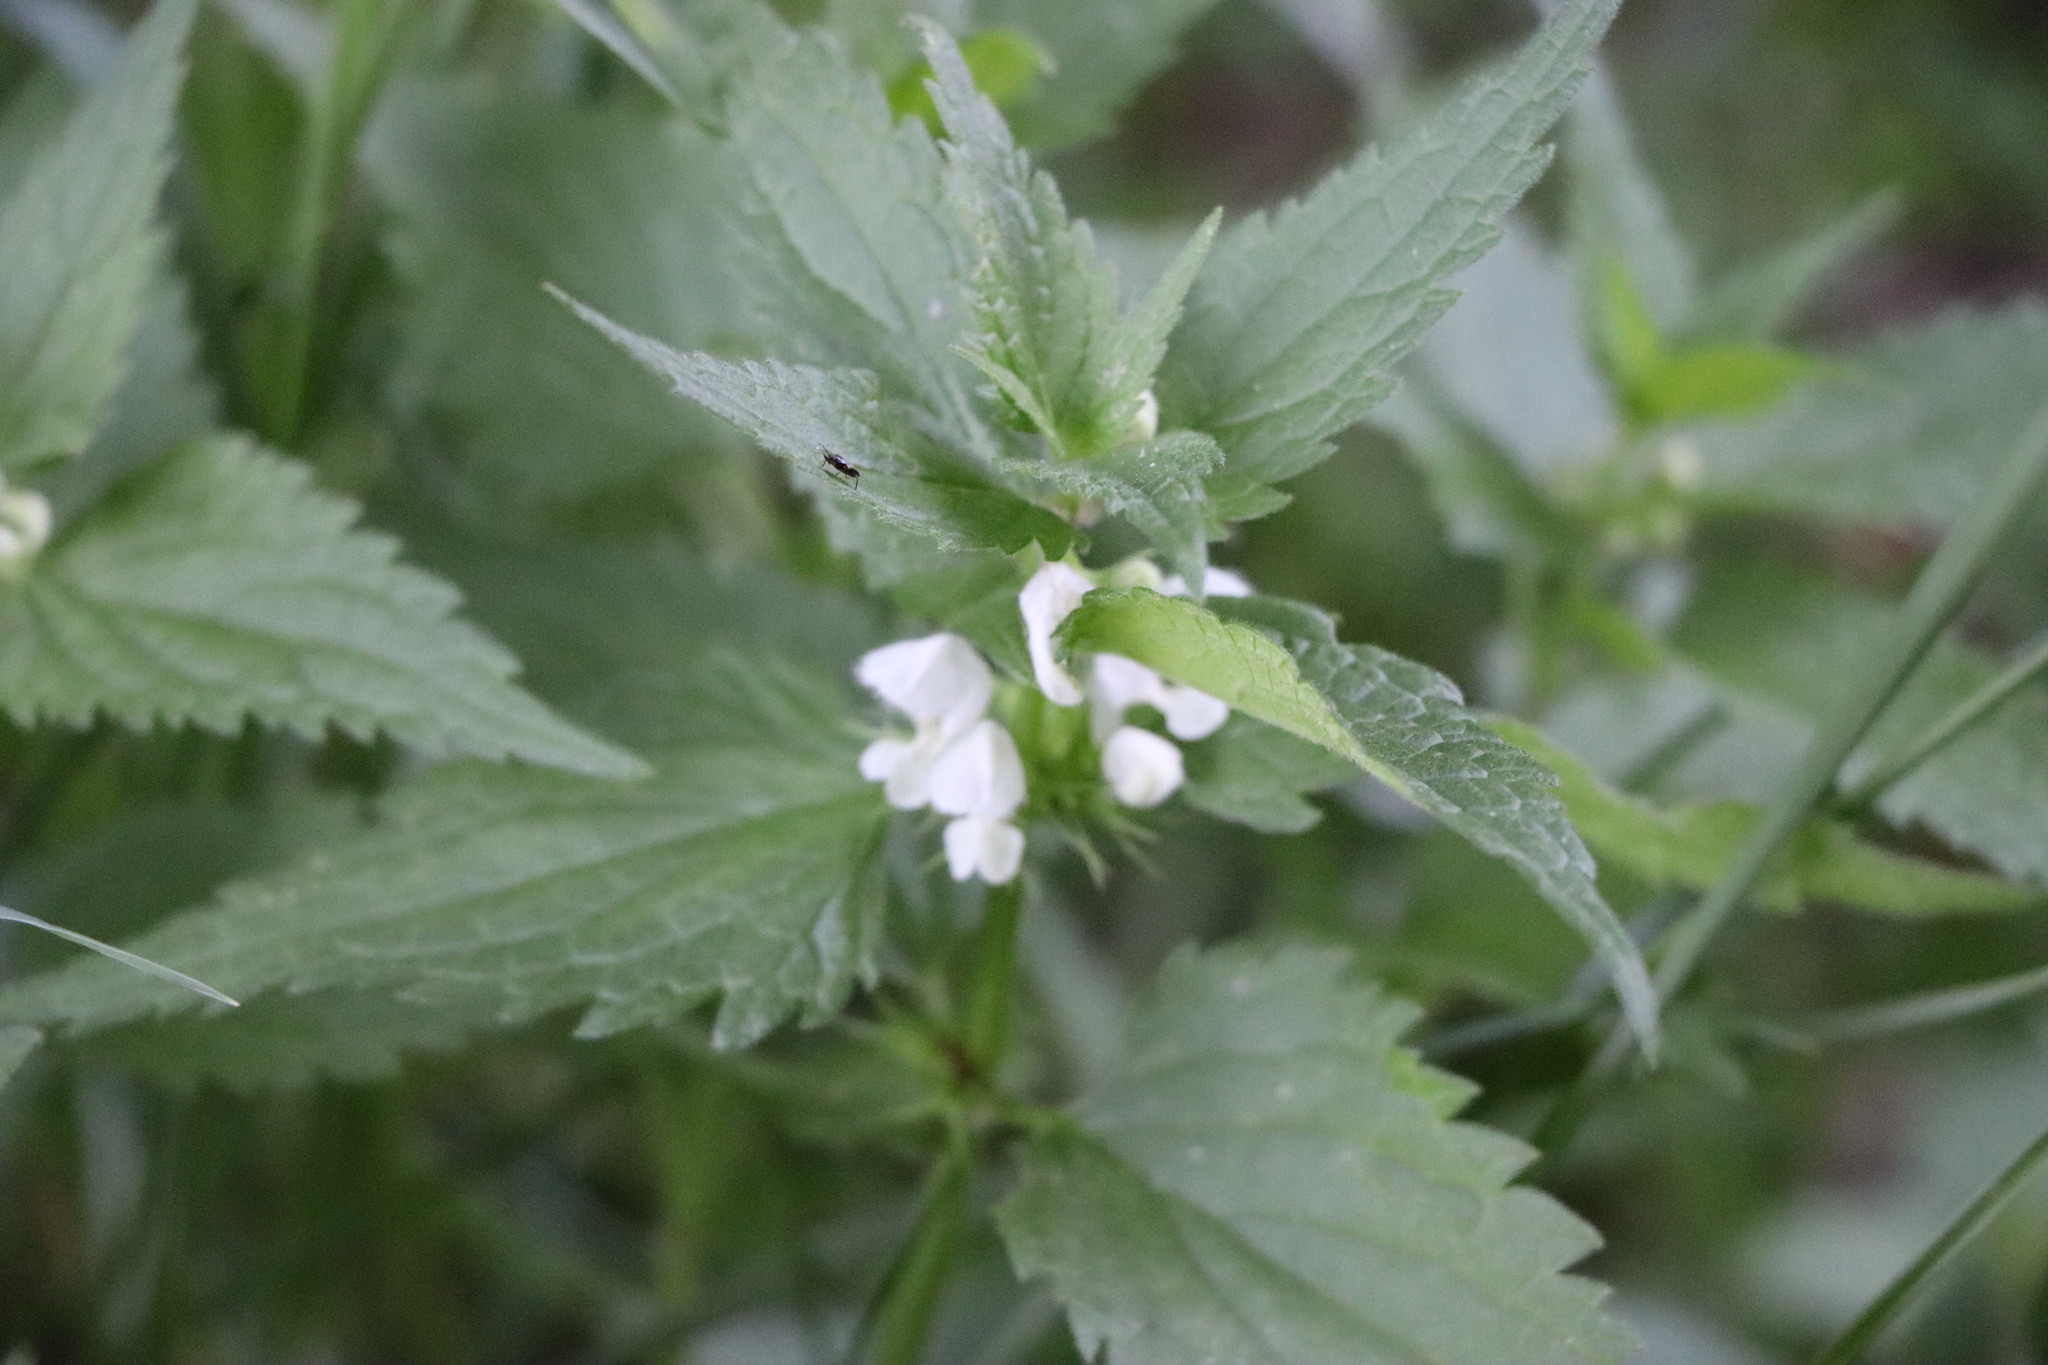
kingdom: Plantae
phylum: Tracheophyta
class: Magnoliopsida
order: Lamiales
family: Lamiaceae
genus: Lamium
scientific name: Lamium album
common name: White dead-nettle
